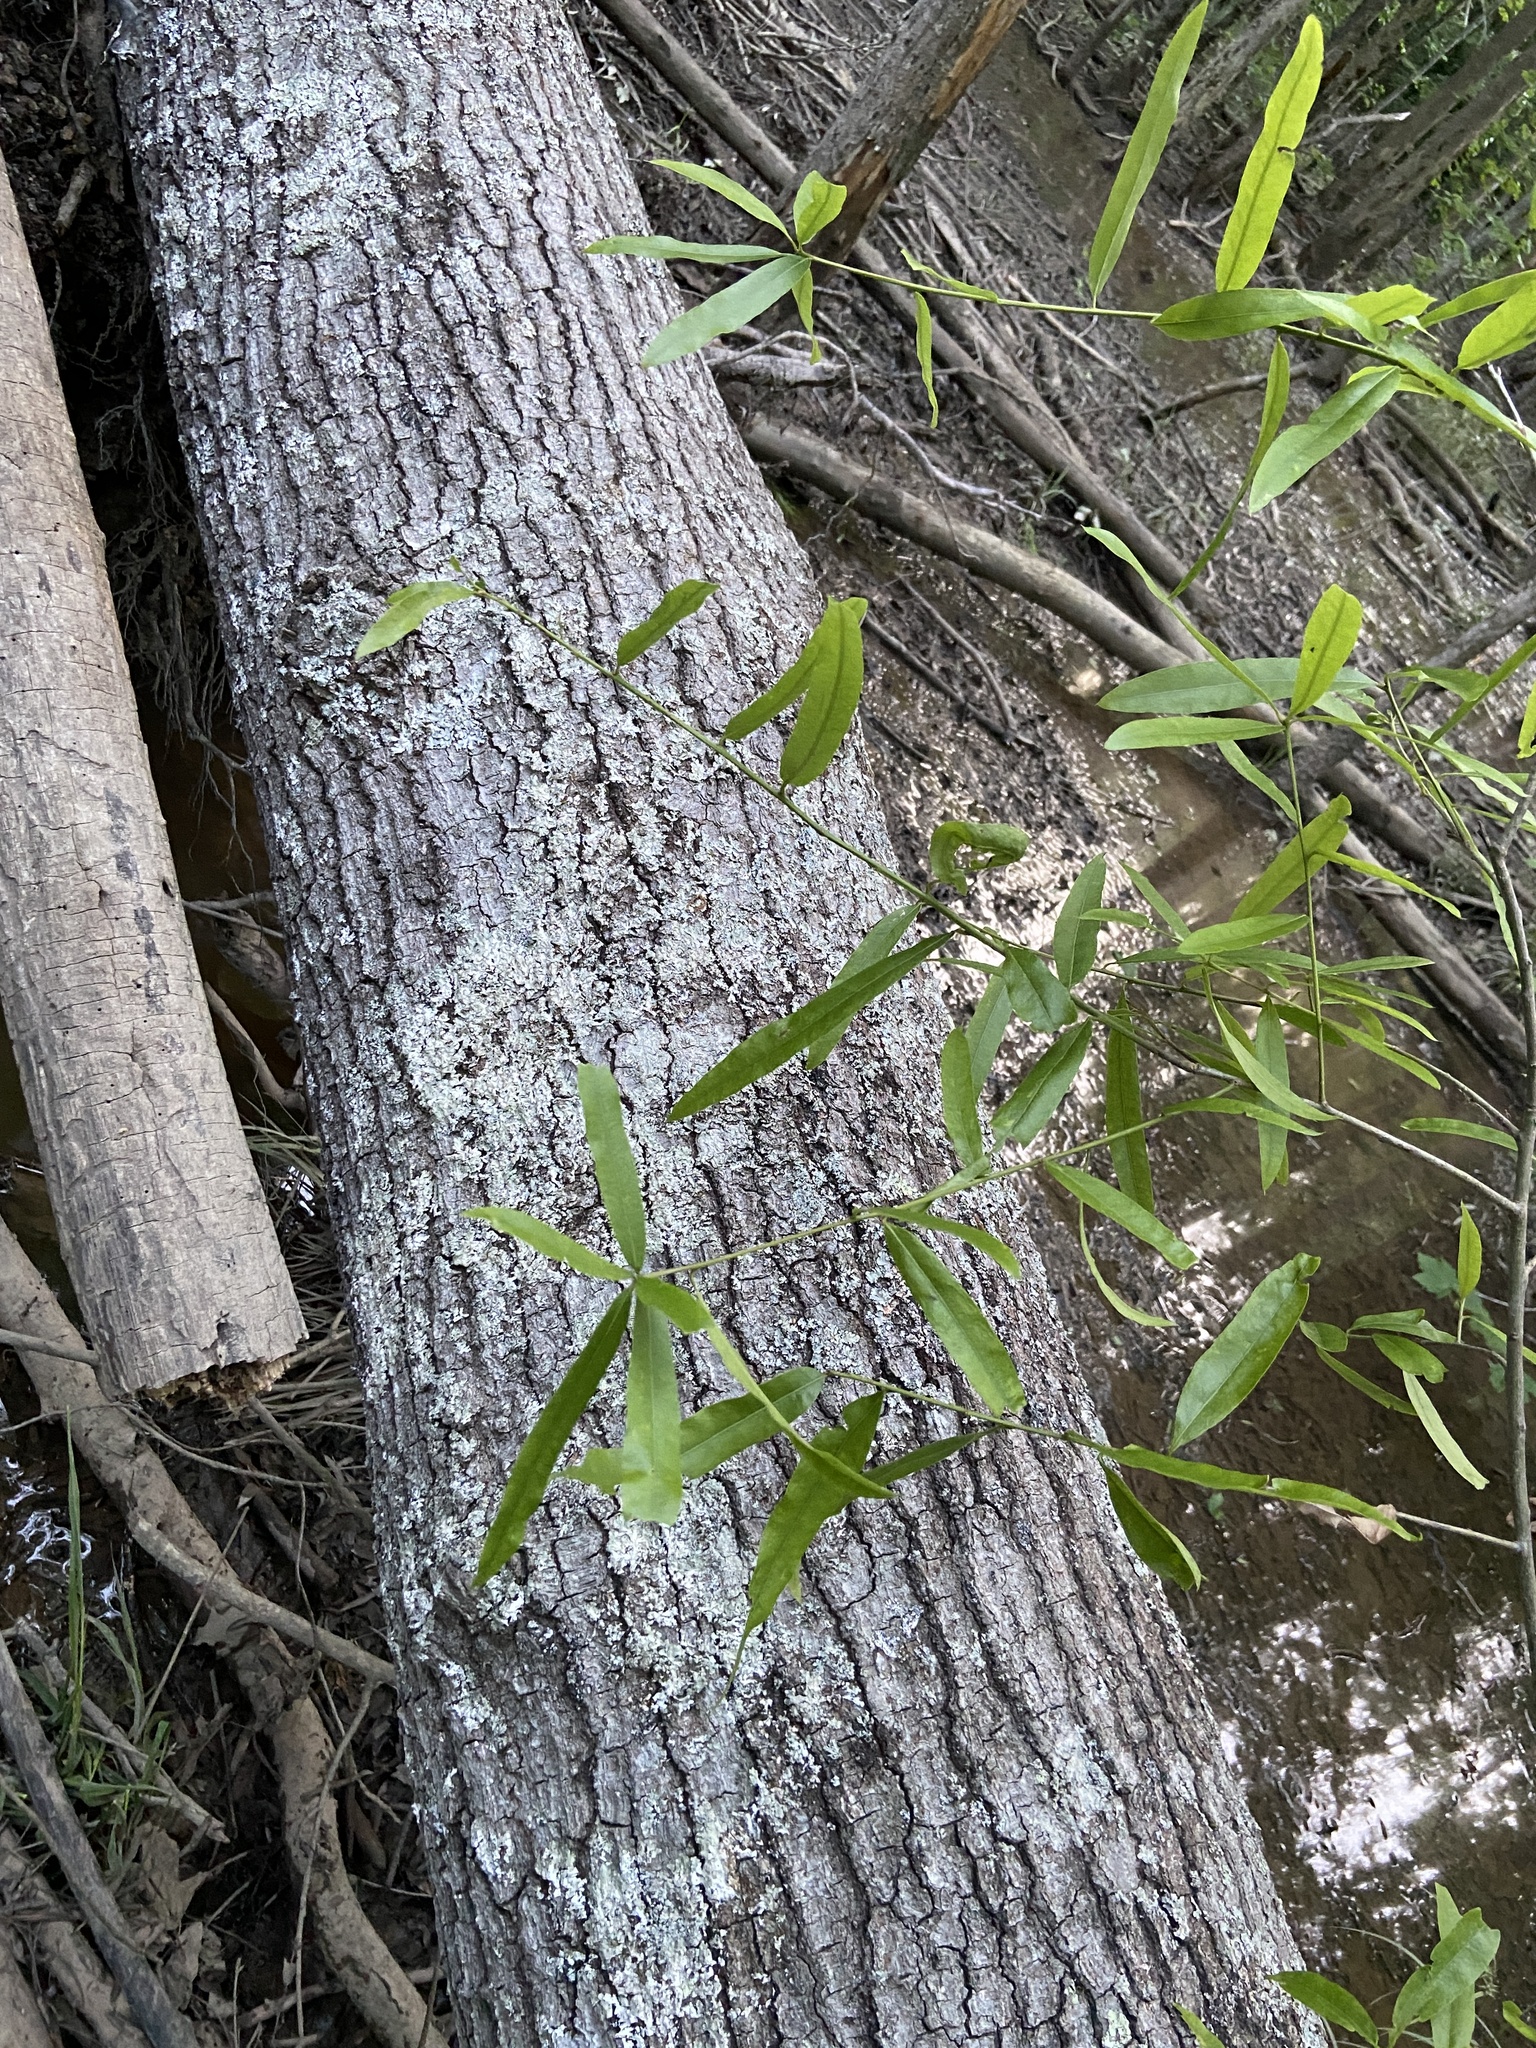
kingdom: Plantae
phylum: Tracheophyta
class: Magnoliopsida
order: Fagales
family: Fagaceae
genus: Quercus
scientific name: Quercus phellos
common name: Willow oak
